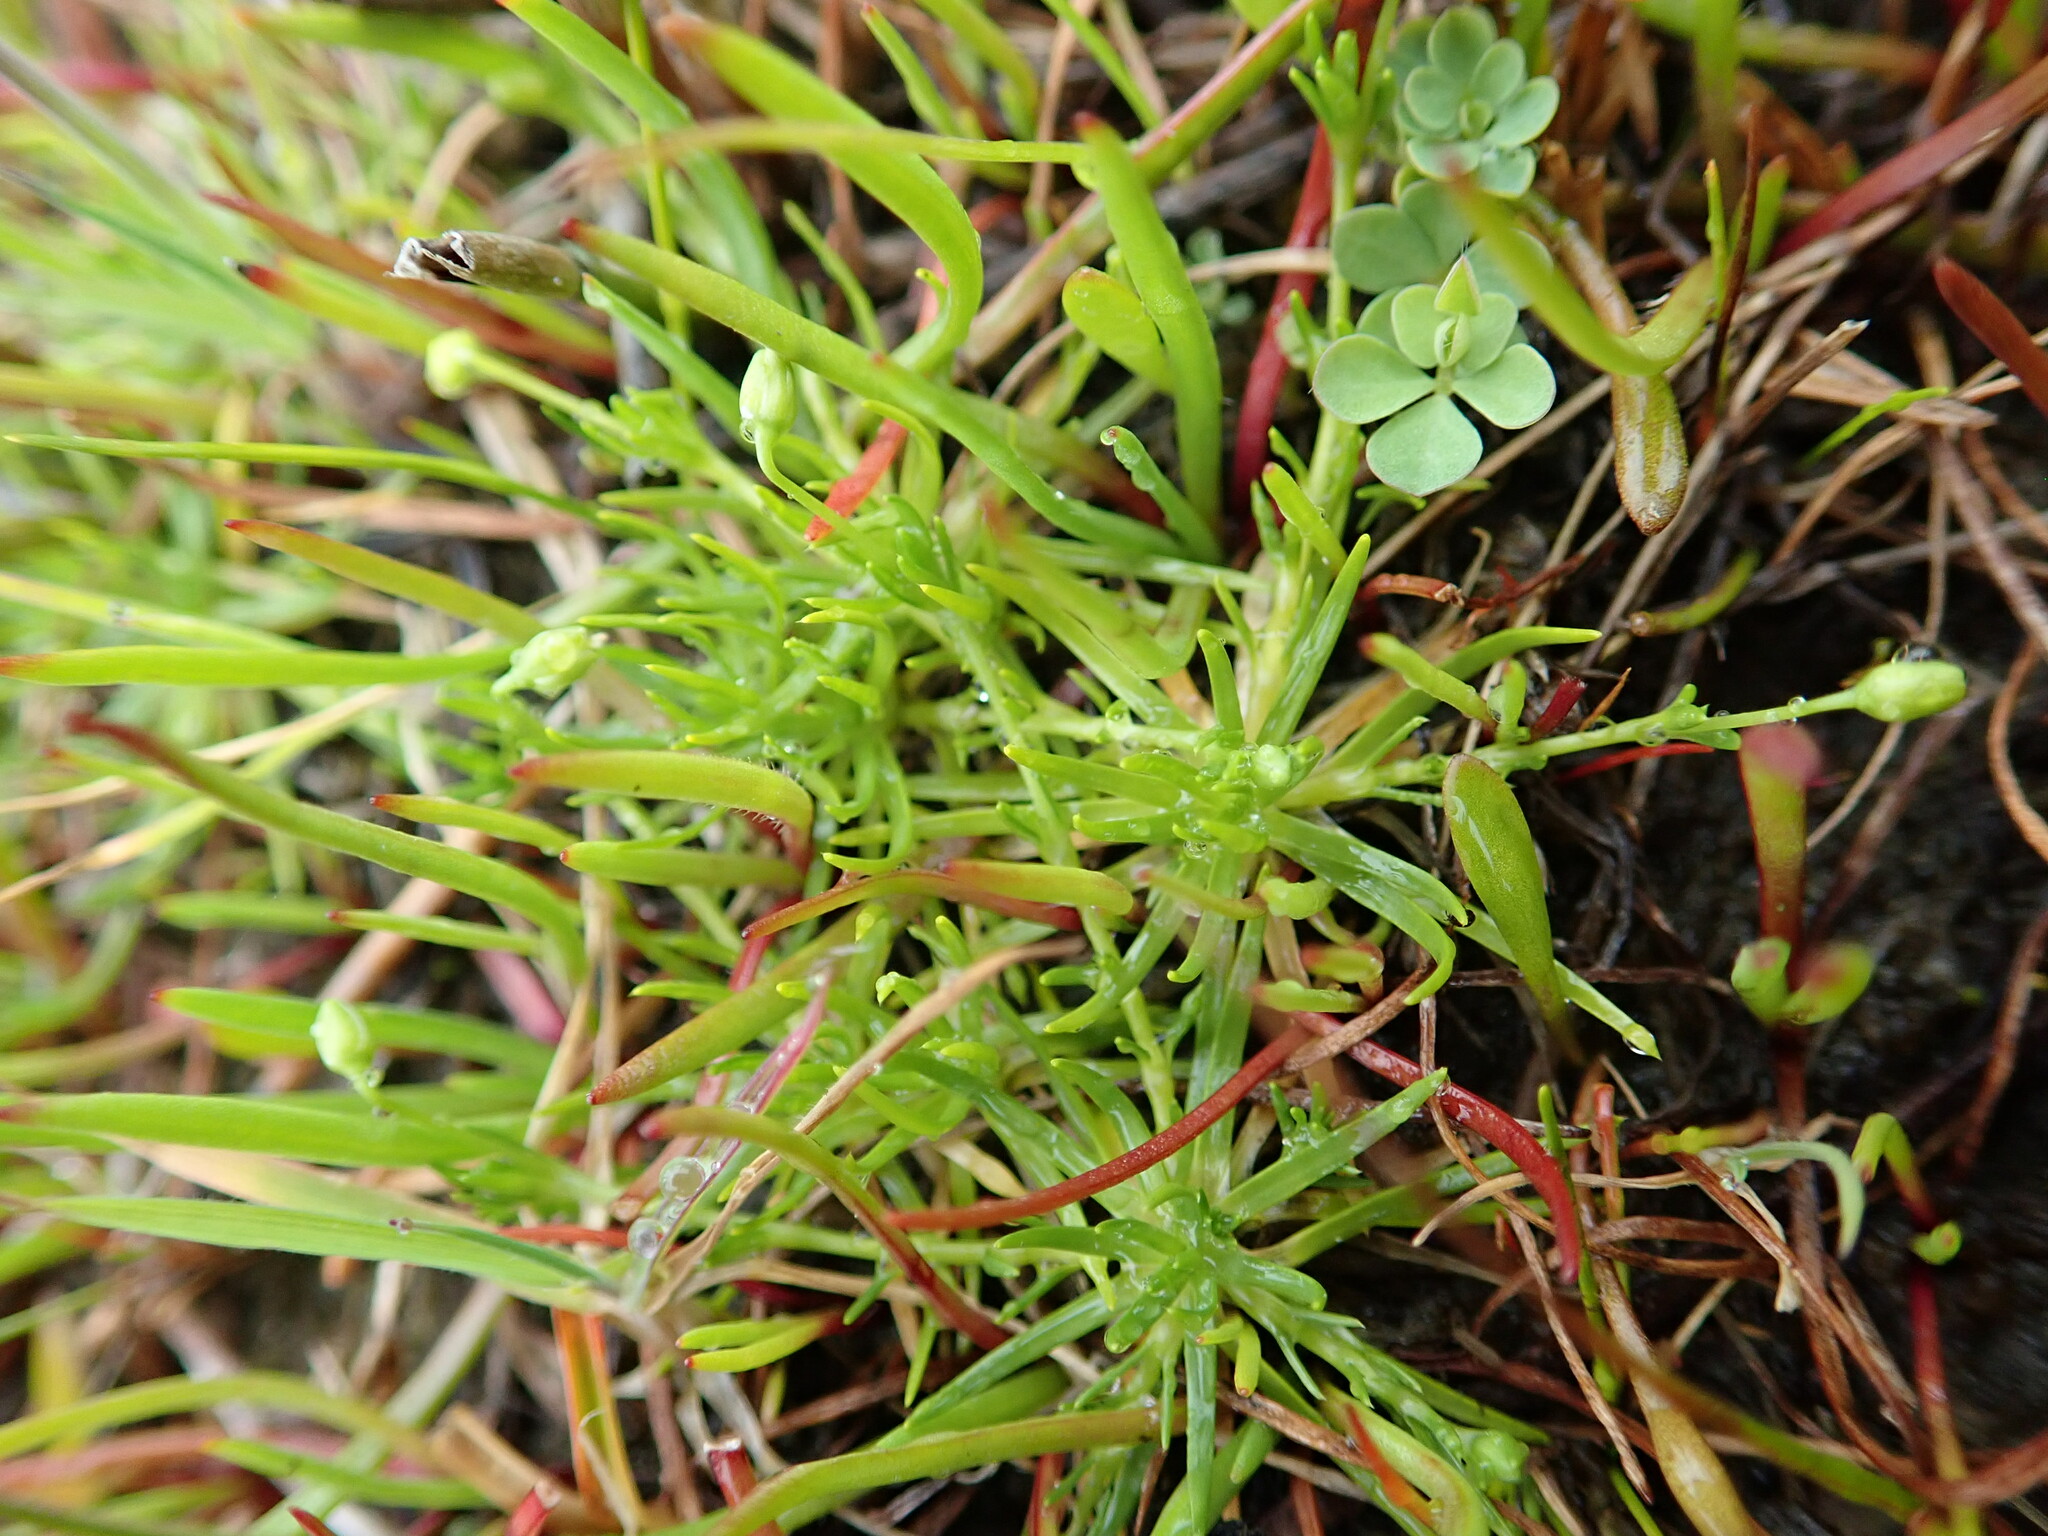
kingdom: Plantae
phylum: Tracheophyta
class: Magnoliopsida
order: Caryophyllales
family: Caryophyllaceae
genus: Sagina
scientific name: Sagina procumbens
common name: Procumbent pearlwort
